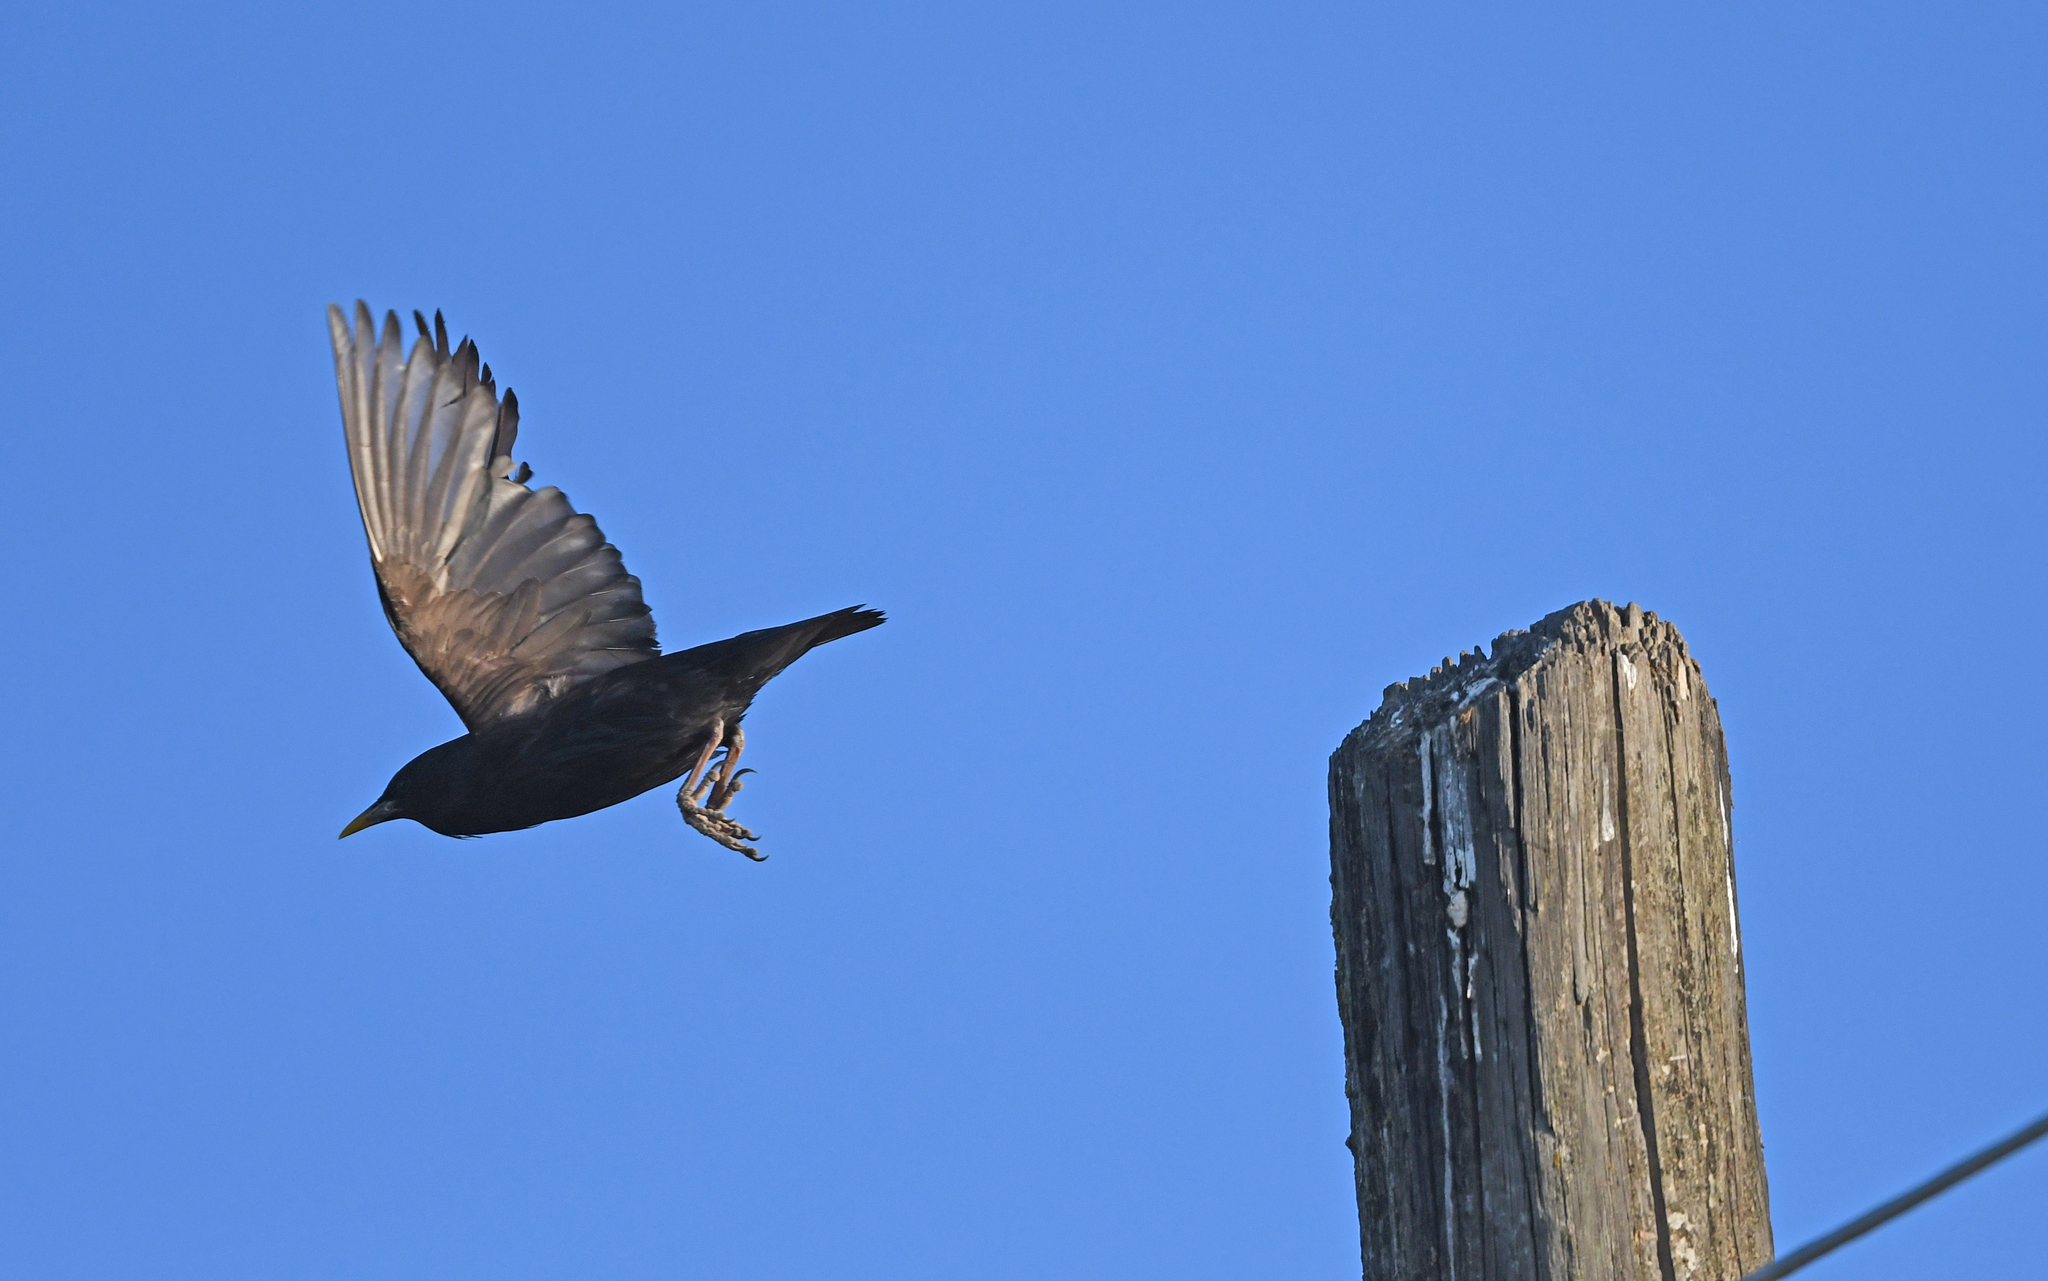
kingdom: Animalia
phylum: Chordata
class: Aves
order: Passeriformes
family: Sturnidae
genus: Sturnus
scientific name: Sturnus unicolor
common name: Spotless starling
